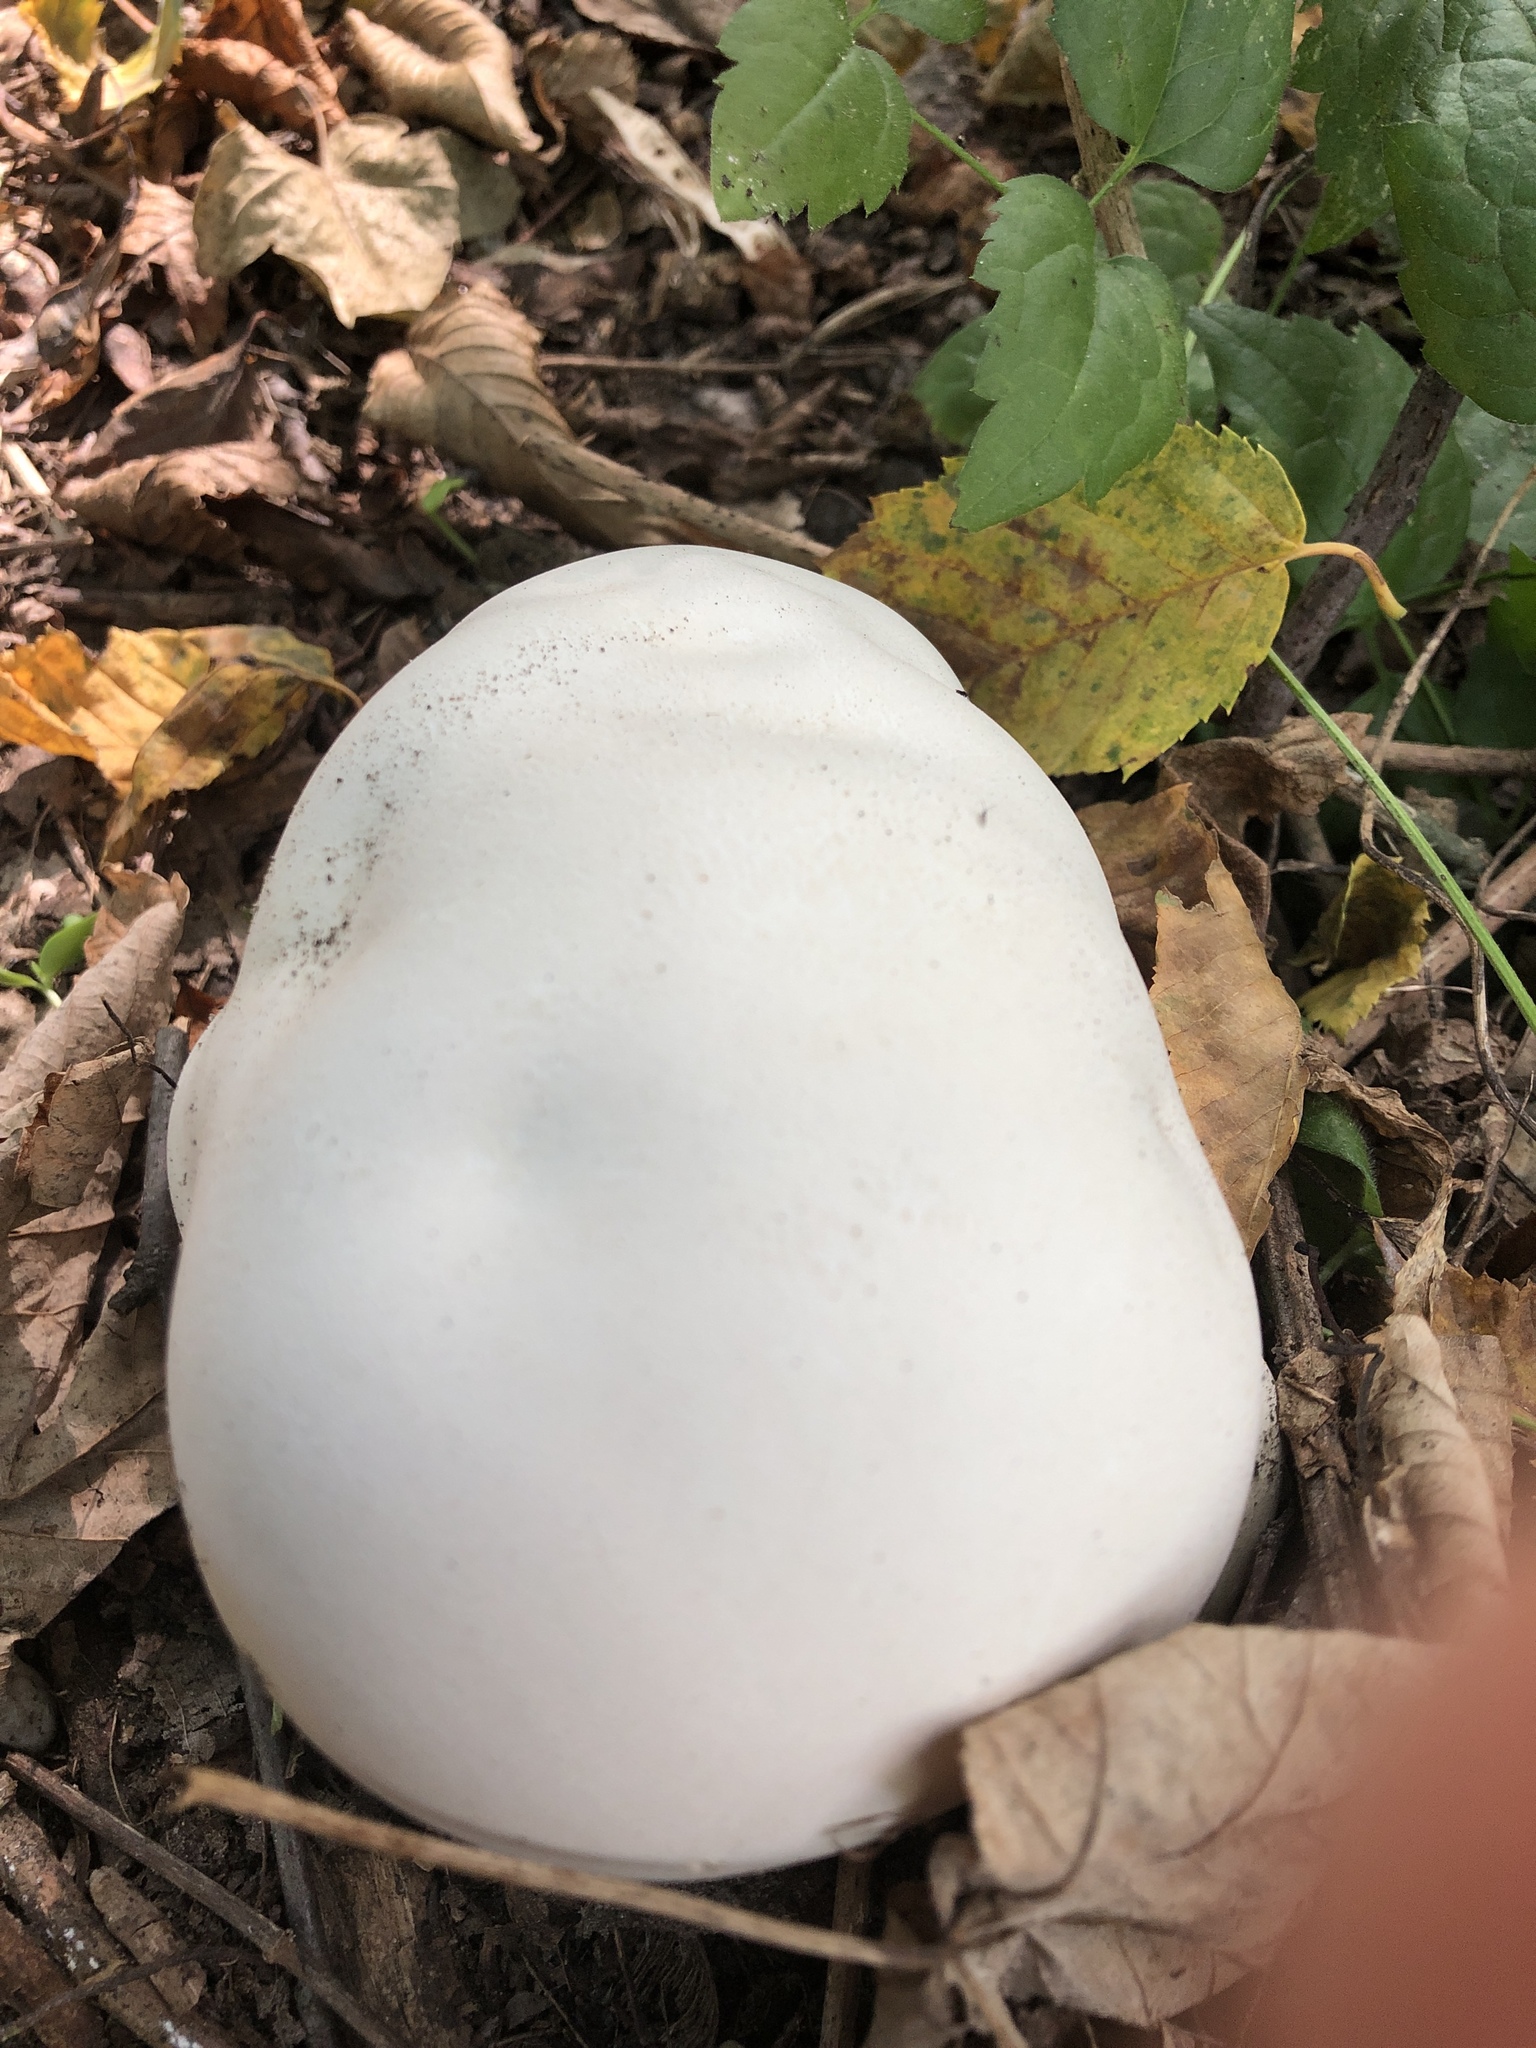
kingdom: Fungi
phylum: Basidiomycota
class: Agaricomycetes
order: Agaricales
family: Lycoperdaceae
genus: Calvatia
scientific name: Calvatia gigantea
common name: Giant puffball
